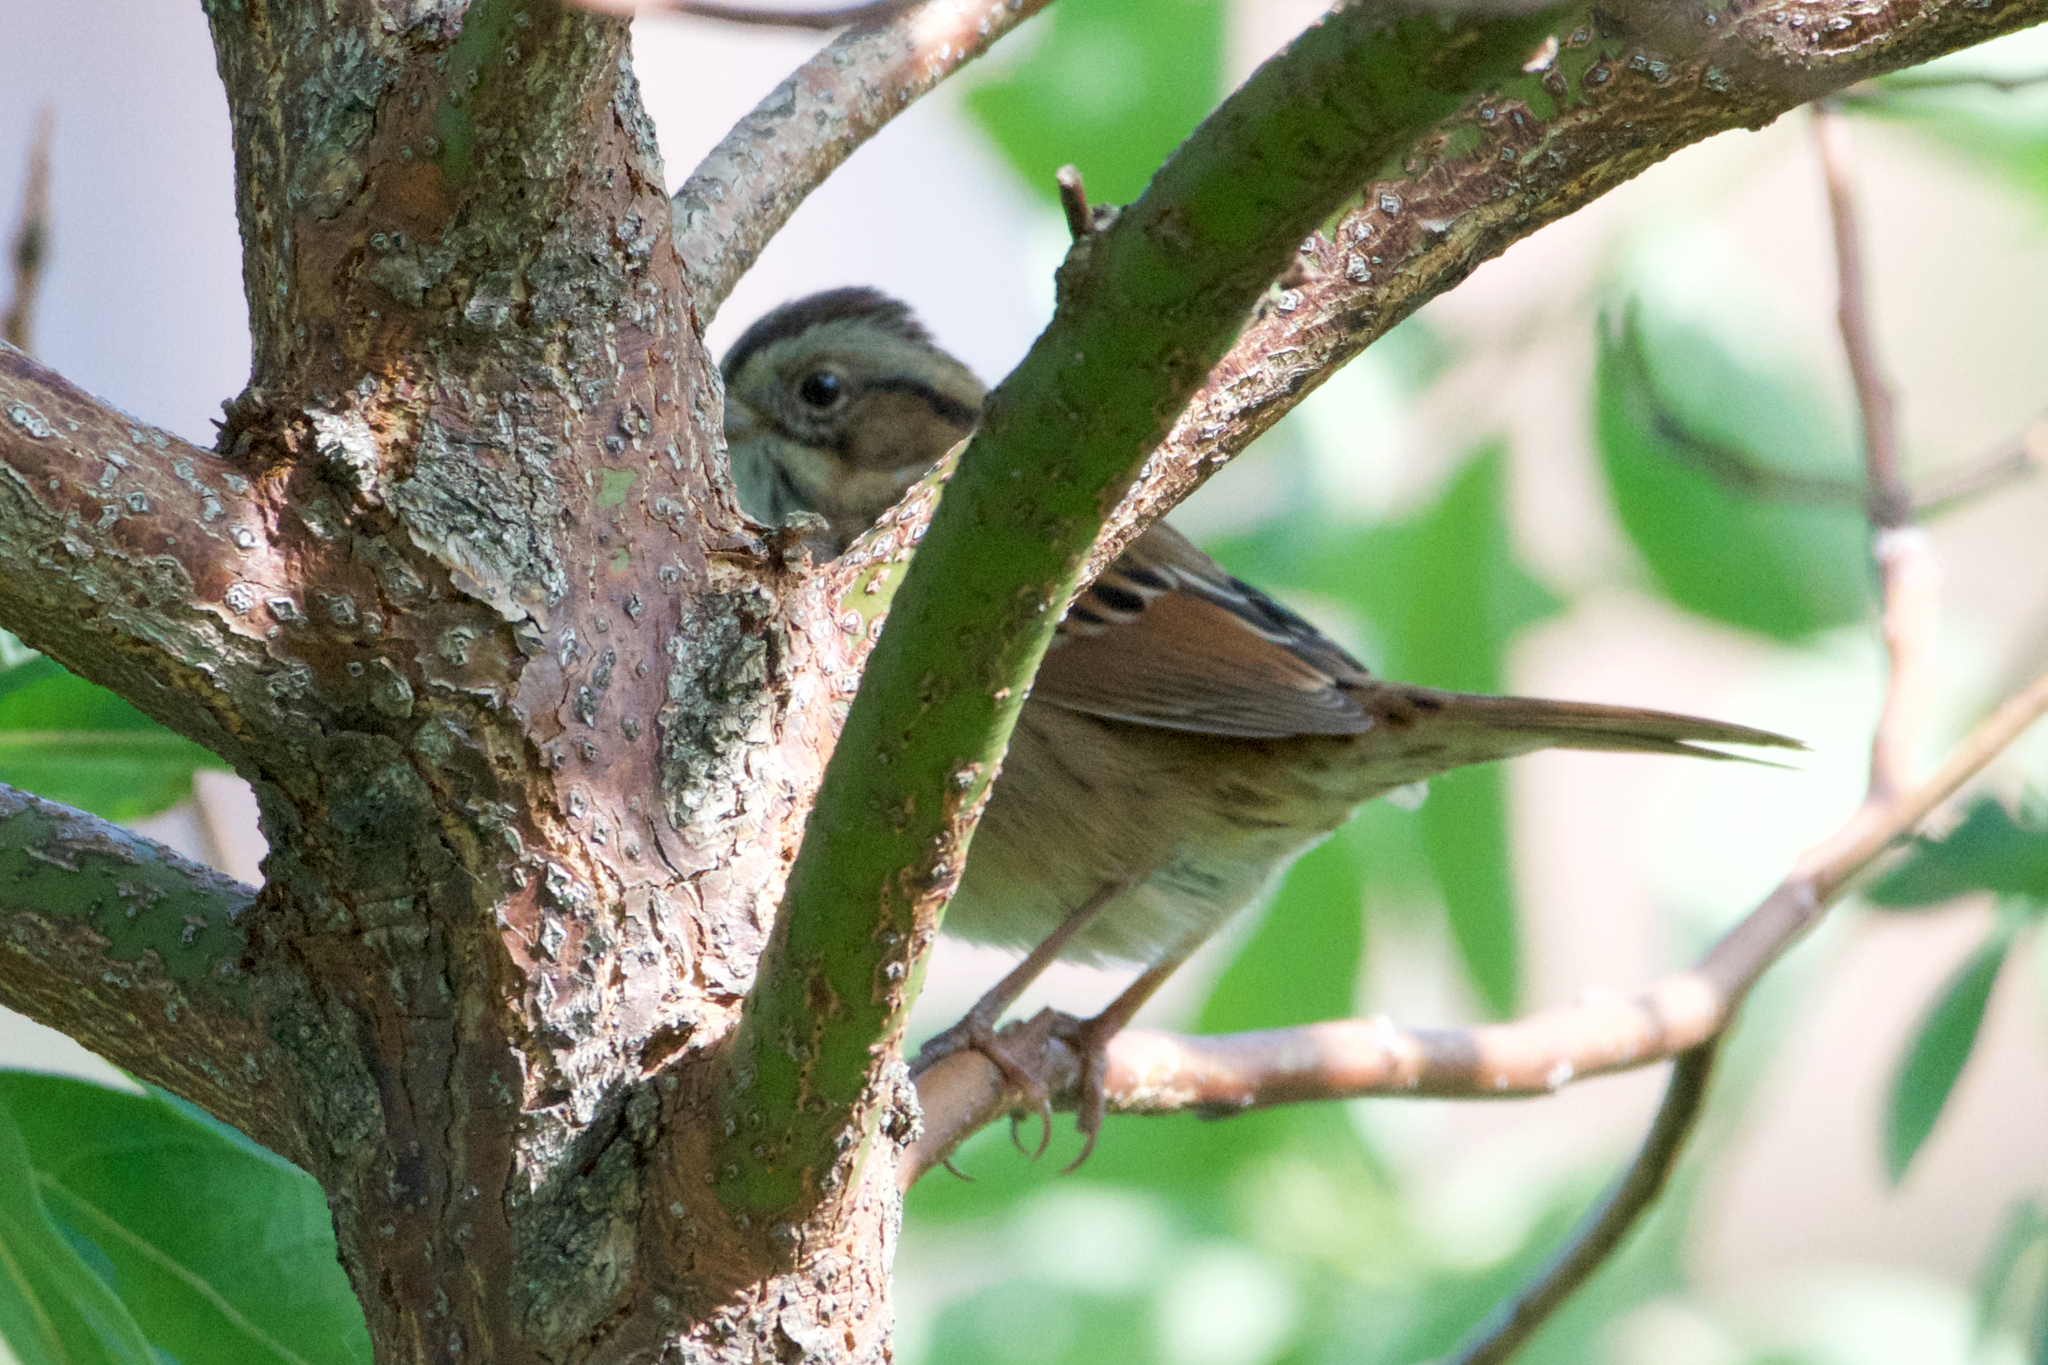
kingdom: Animalia
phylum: Chordata
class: Aves
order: Passeriformes
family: Passerellidae
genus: Melospiza
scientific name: Melospiza georgiana
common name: Swamp sparrow
